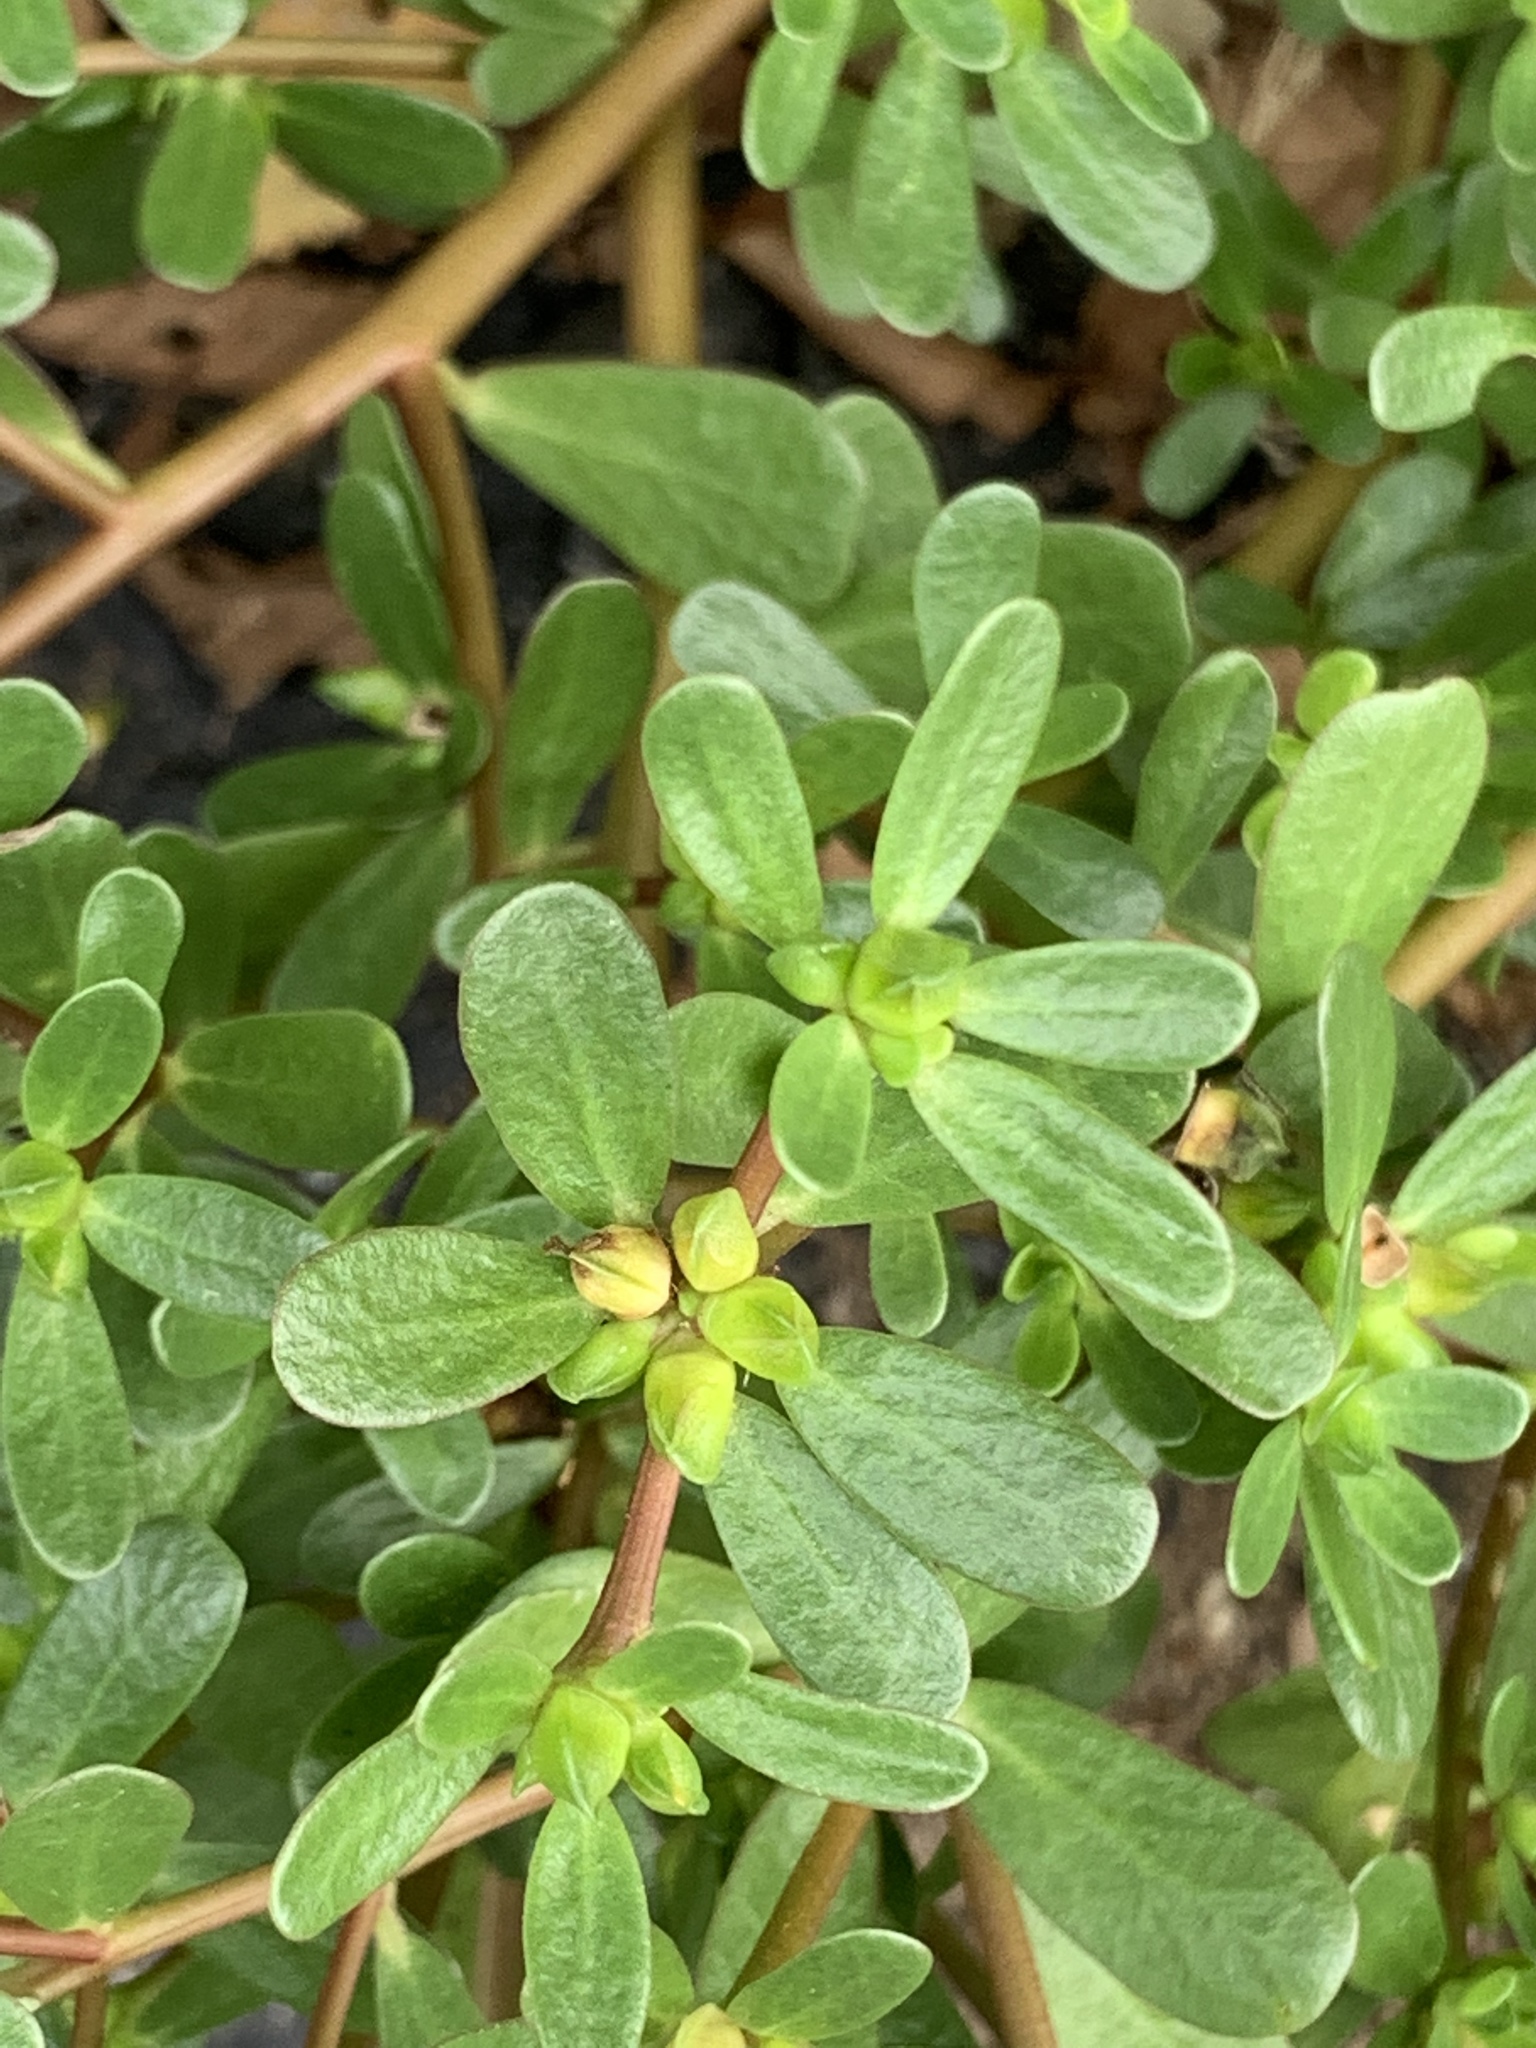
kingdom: Plantae
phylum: Tracheophyta
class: Magnoliopsida
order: Caryophyllales
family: Portulacaceae
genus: Portulaca
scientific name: Portulaca oleracea
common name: Common purslane
